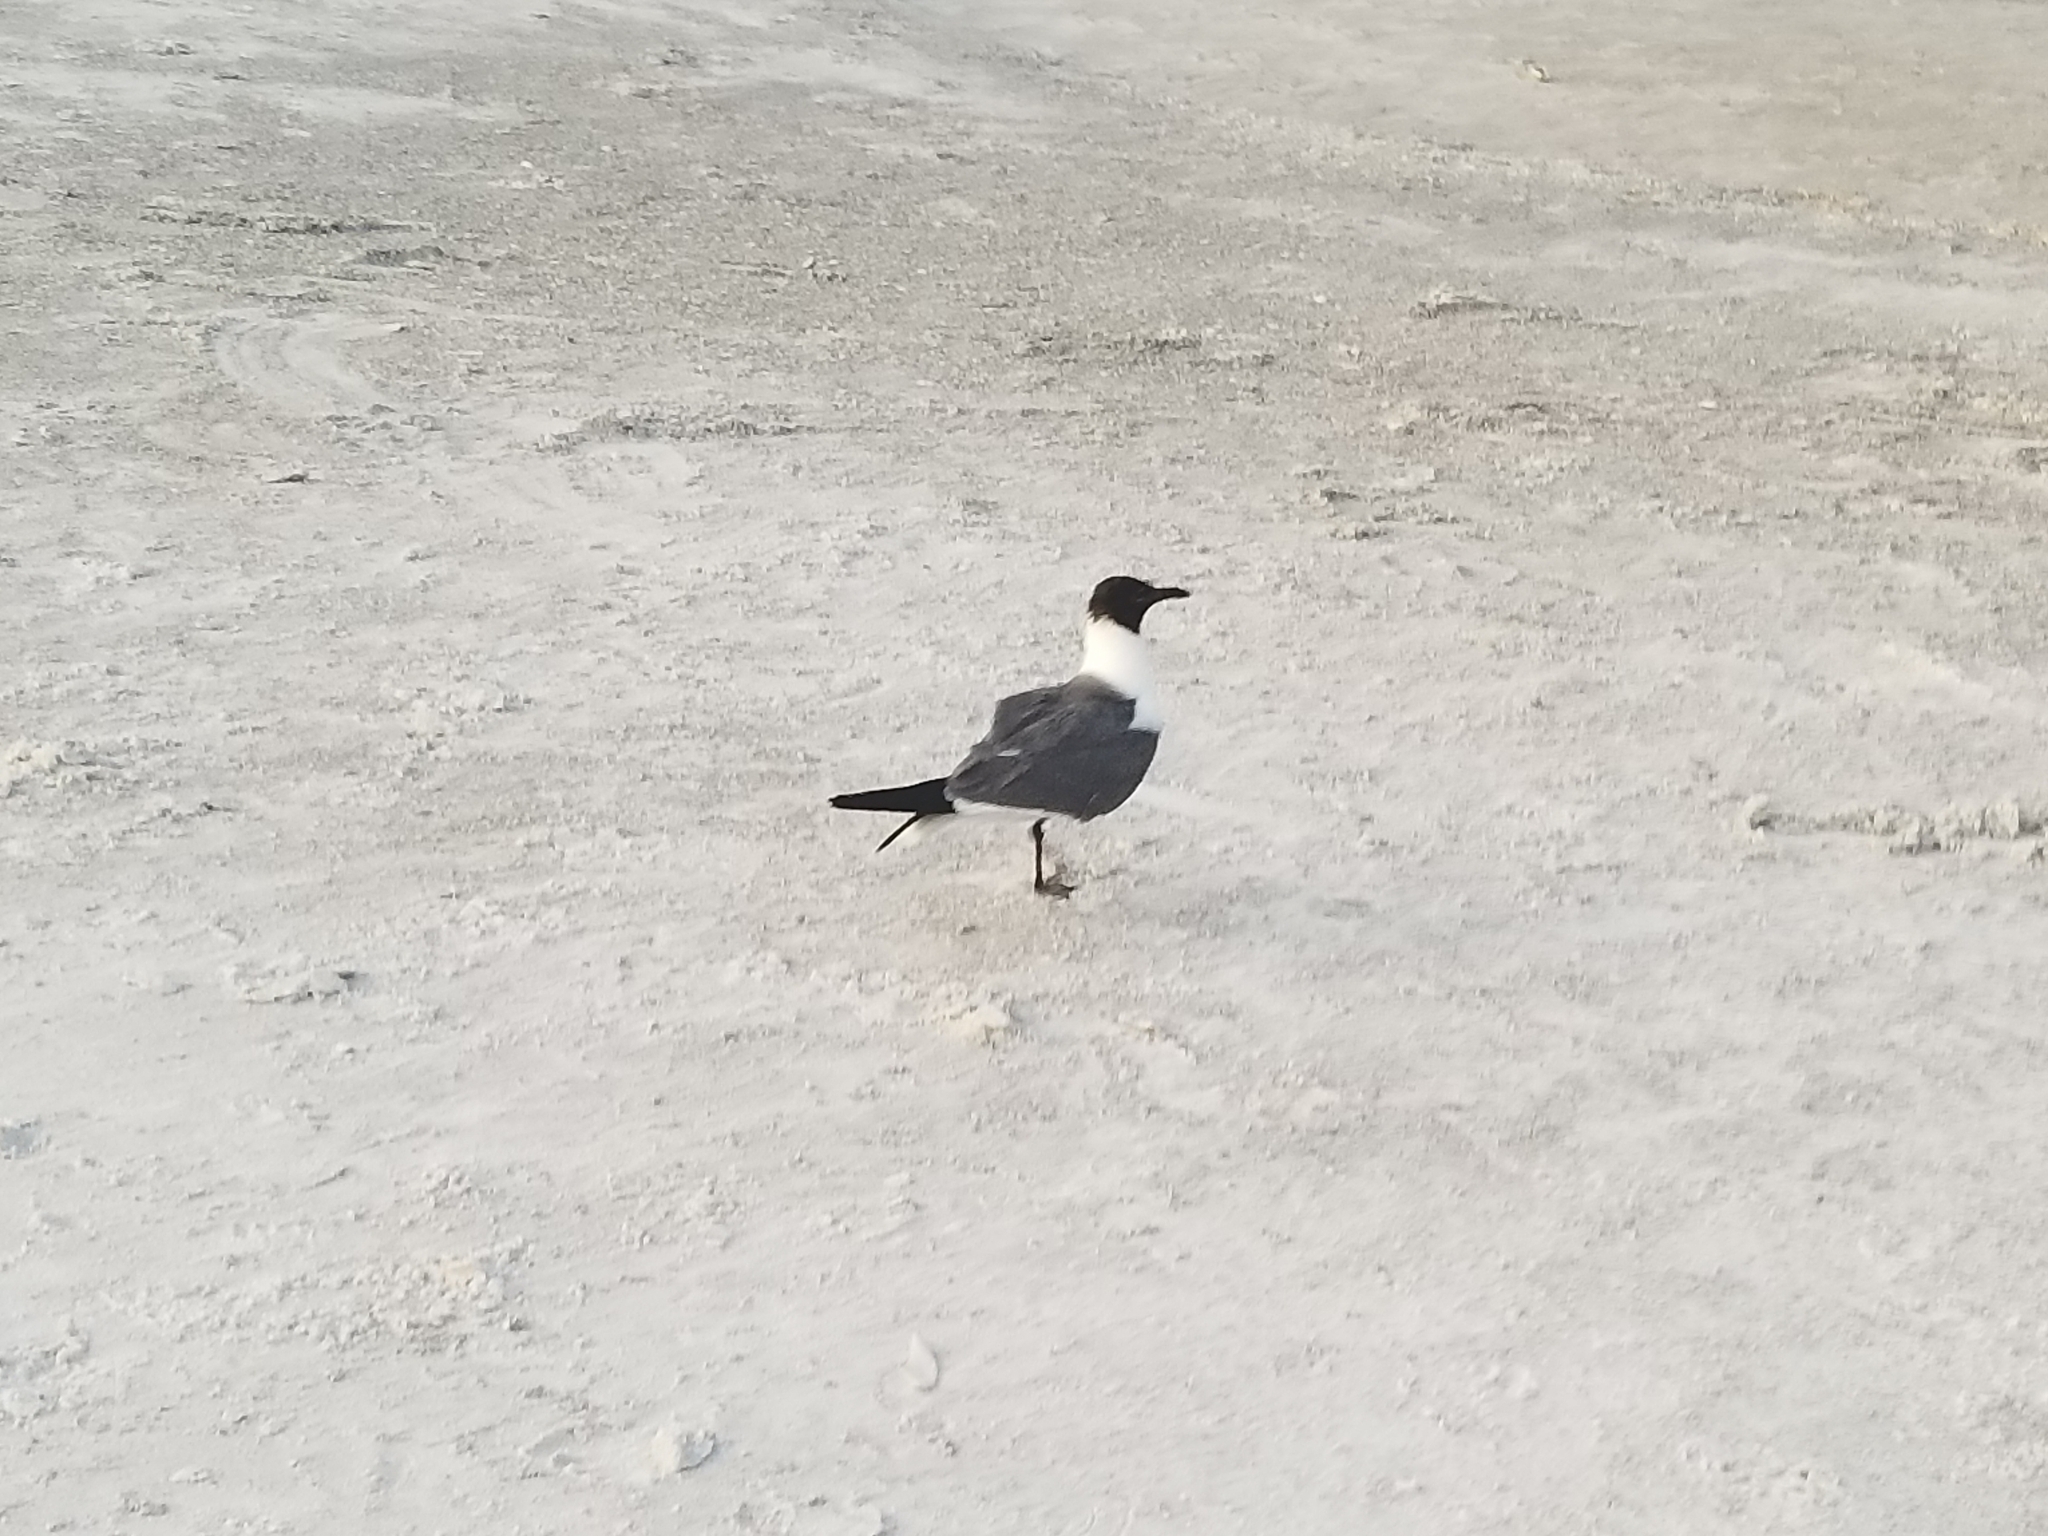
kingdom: Animalia
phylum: Chordata
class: Aves
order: Charadriiformes
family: Laridae
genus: Leucophaeus
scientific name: Leucophaeus atricilla
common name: Laughing gull
